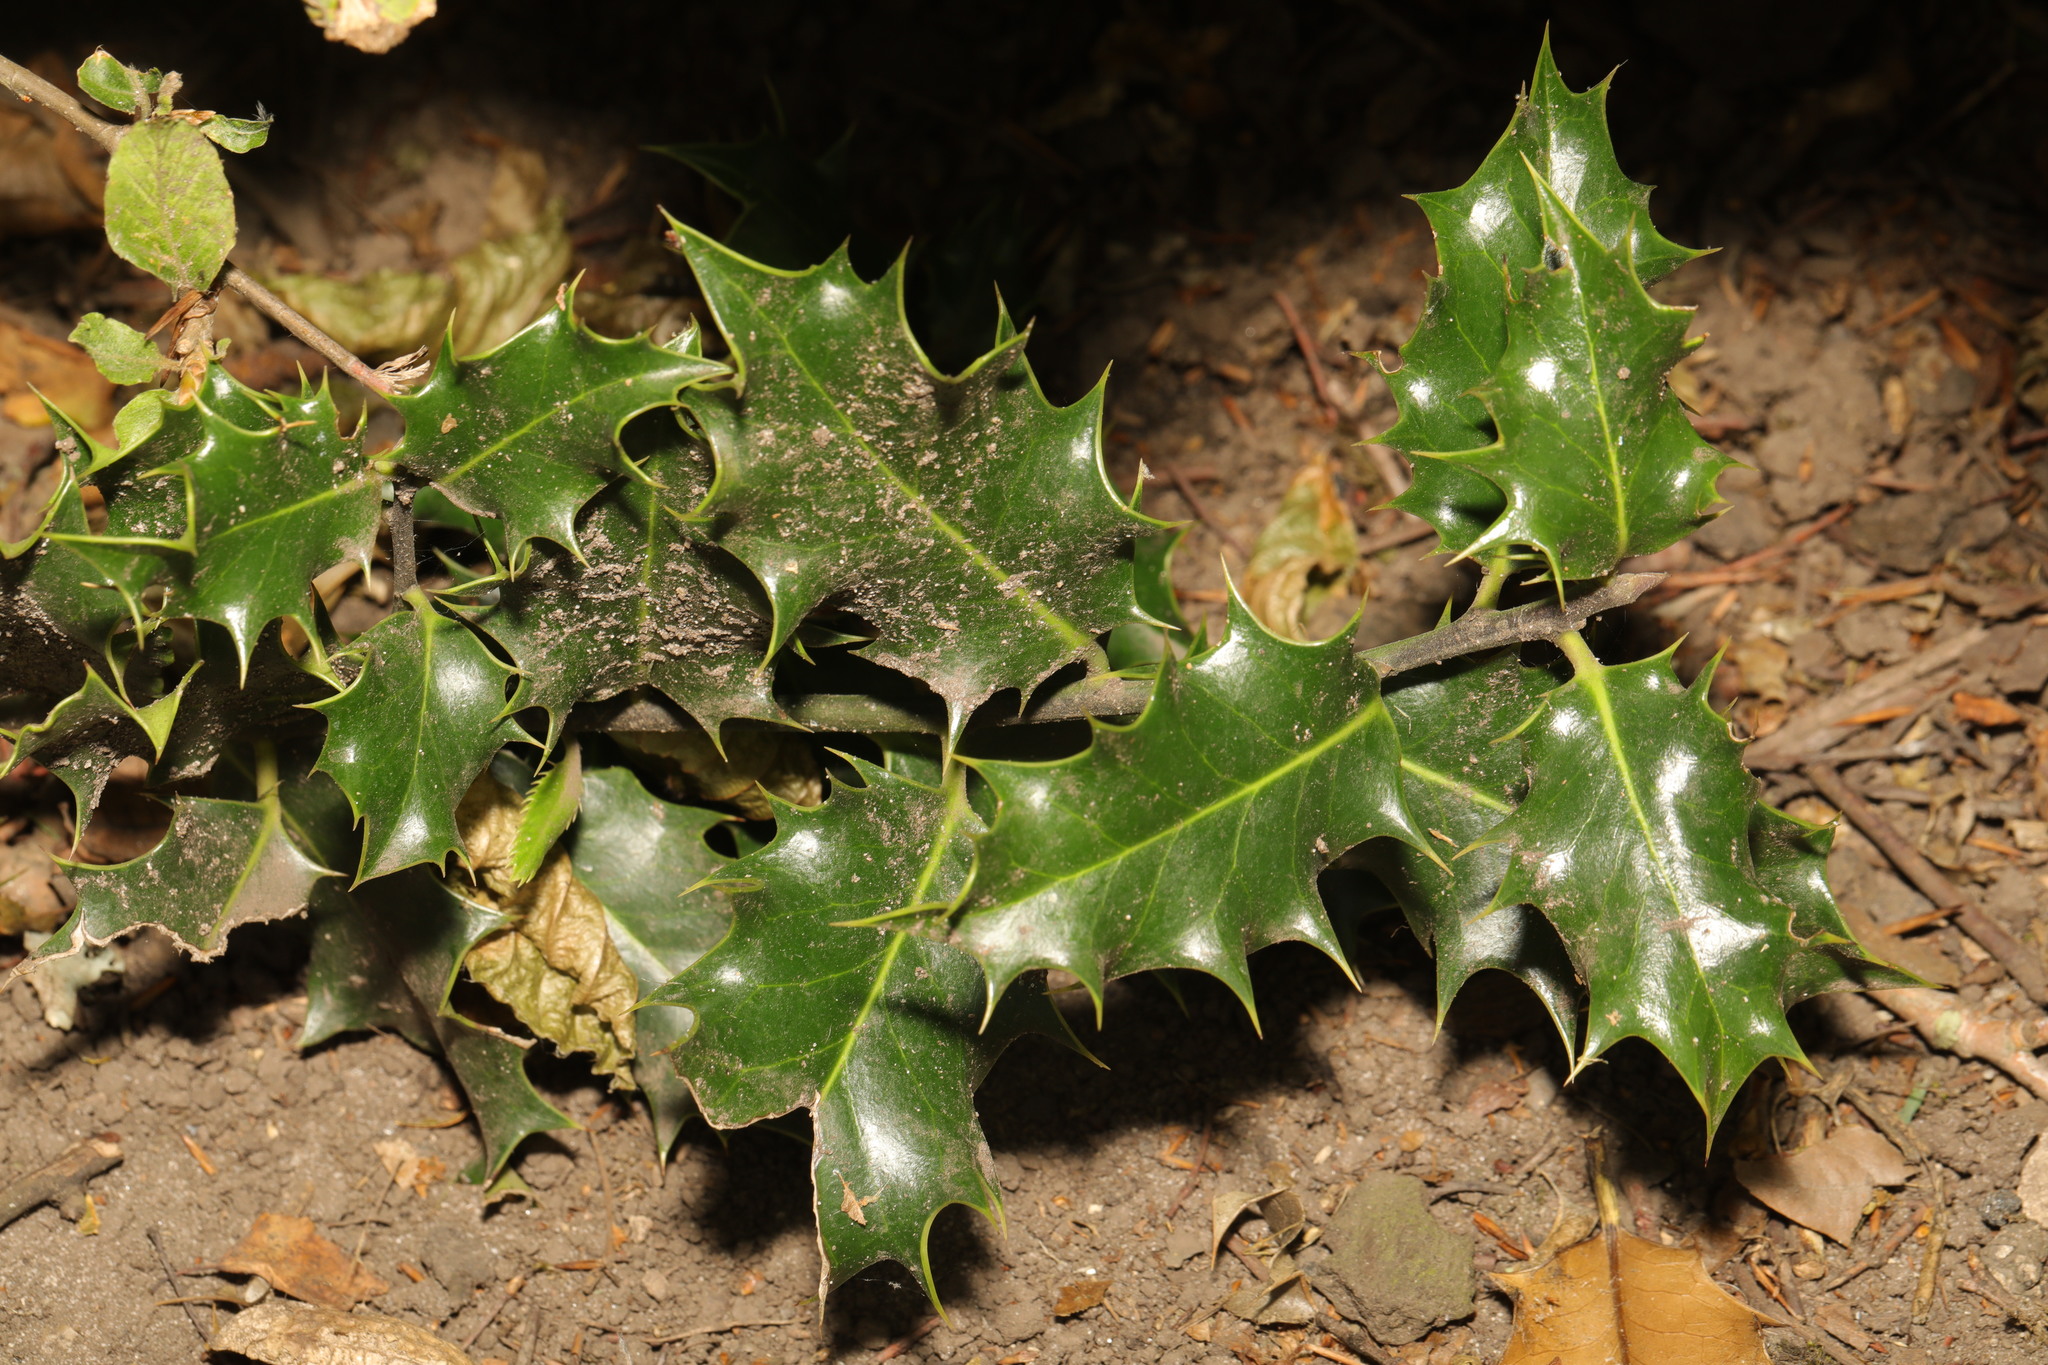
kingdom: Plantae
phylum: Tracheophyta
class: Magnoliopsida
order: Aquifoliales
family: Aquifoliaceae
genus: Ilex
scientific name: Ilex aquifolium
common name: English holly
